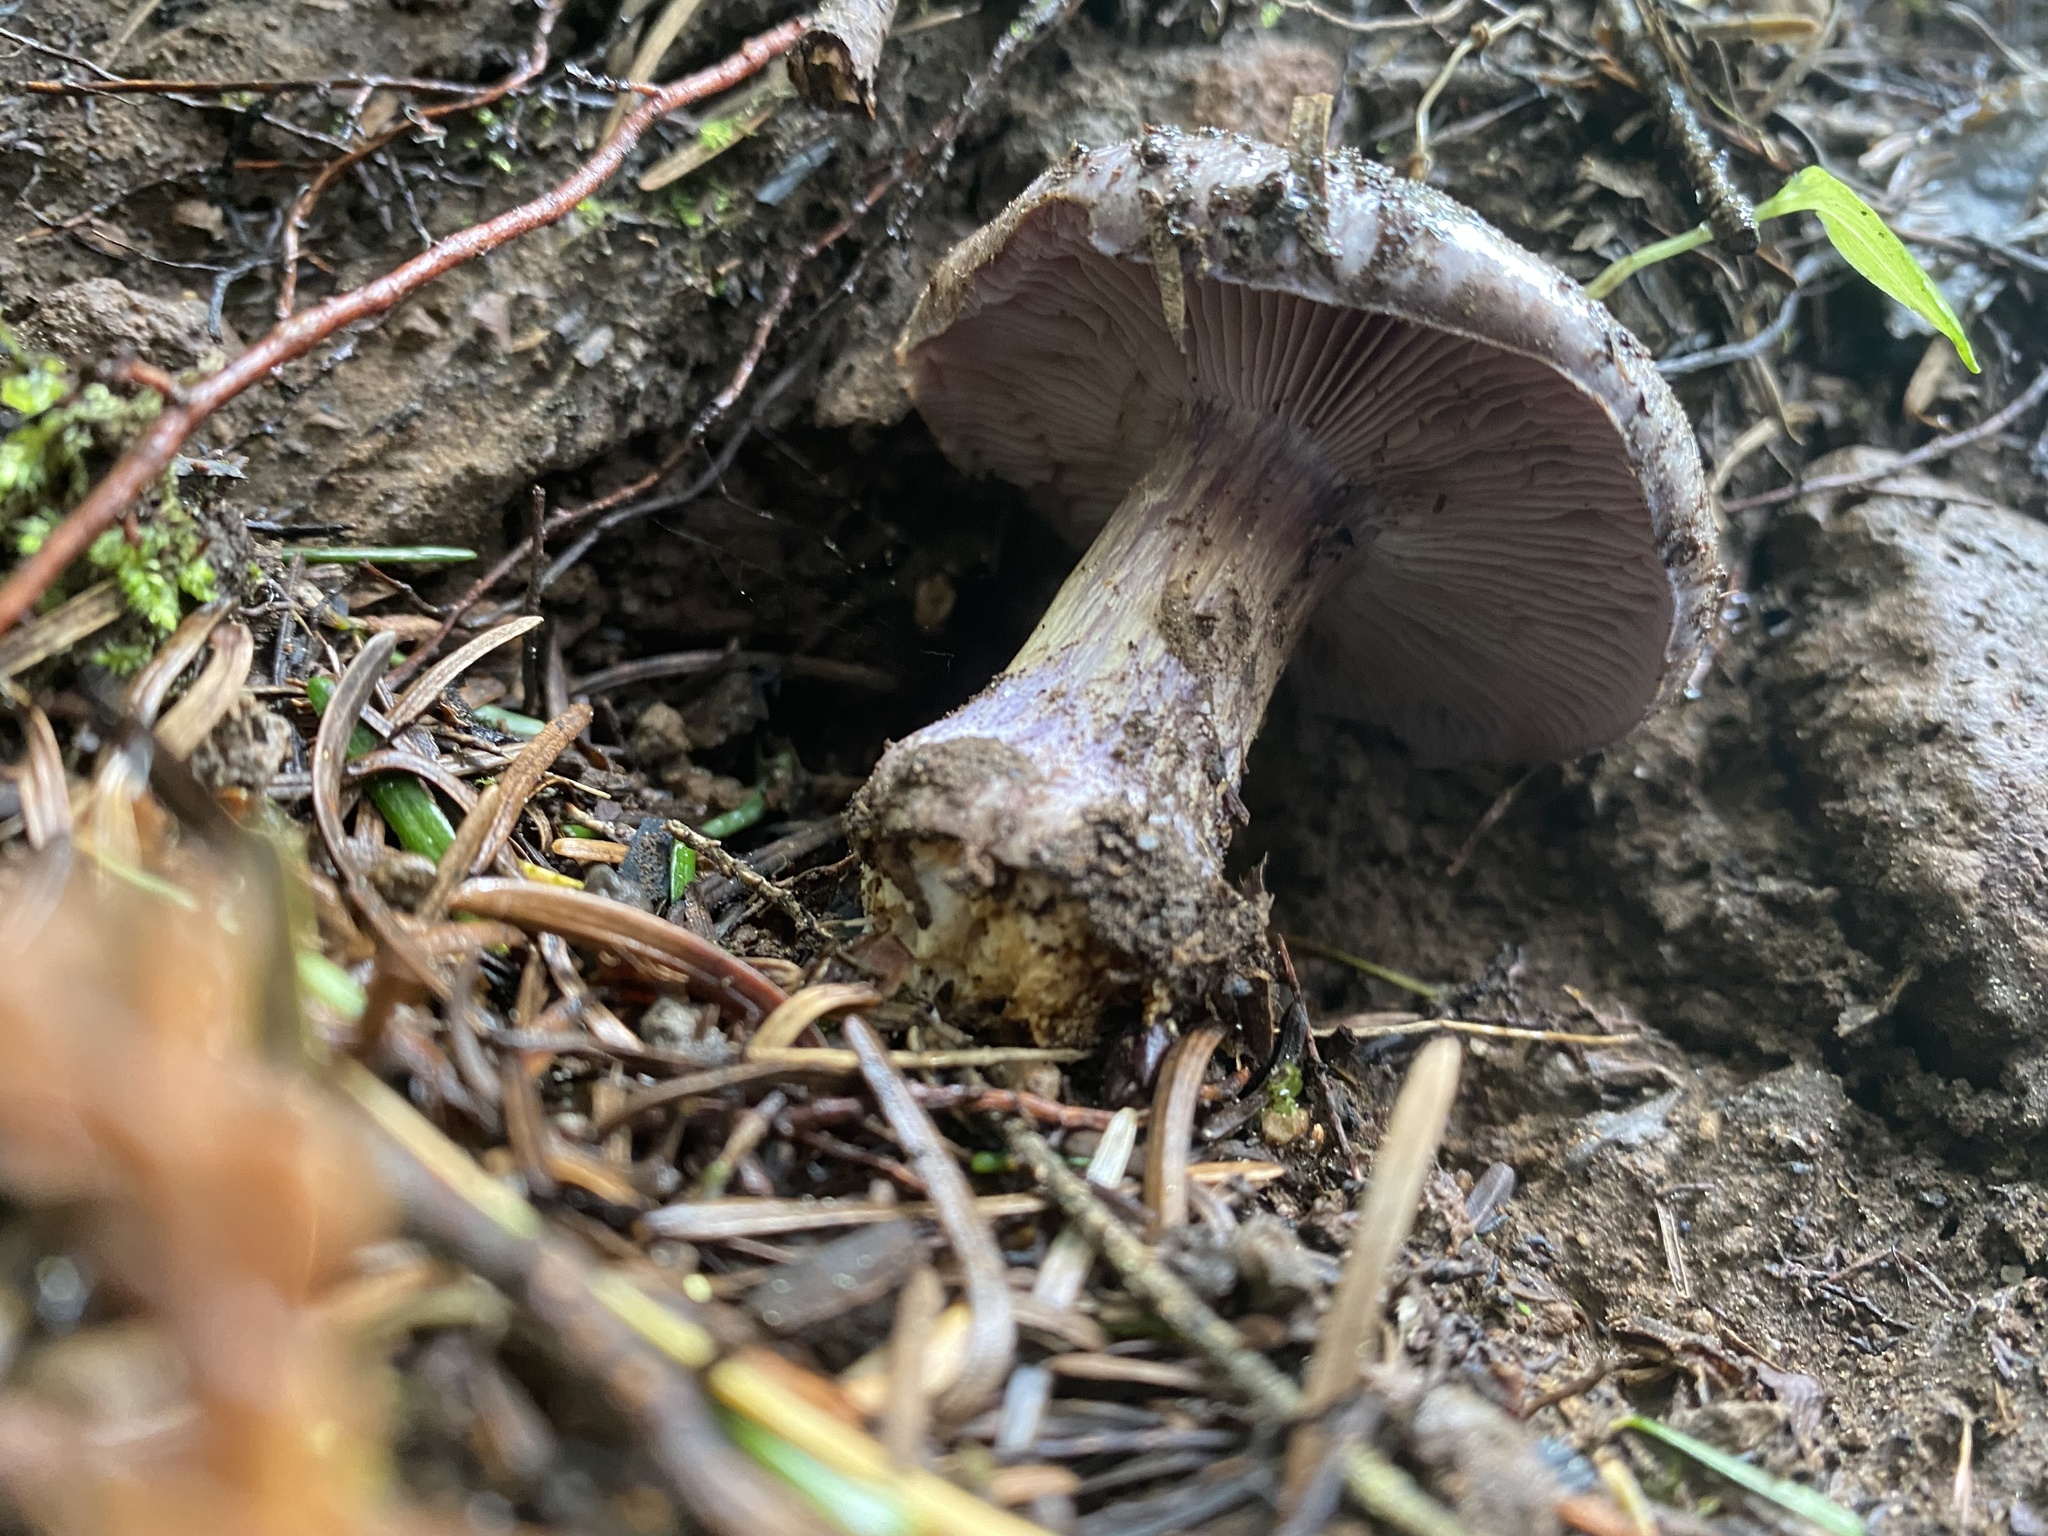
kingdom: Fungi
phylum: Basidiomycota
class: Agaricomycetes
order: Agaricales
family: Cortinariaceae
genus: Phlegmacium
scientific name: Phlegmacium subolivascens
